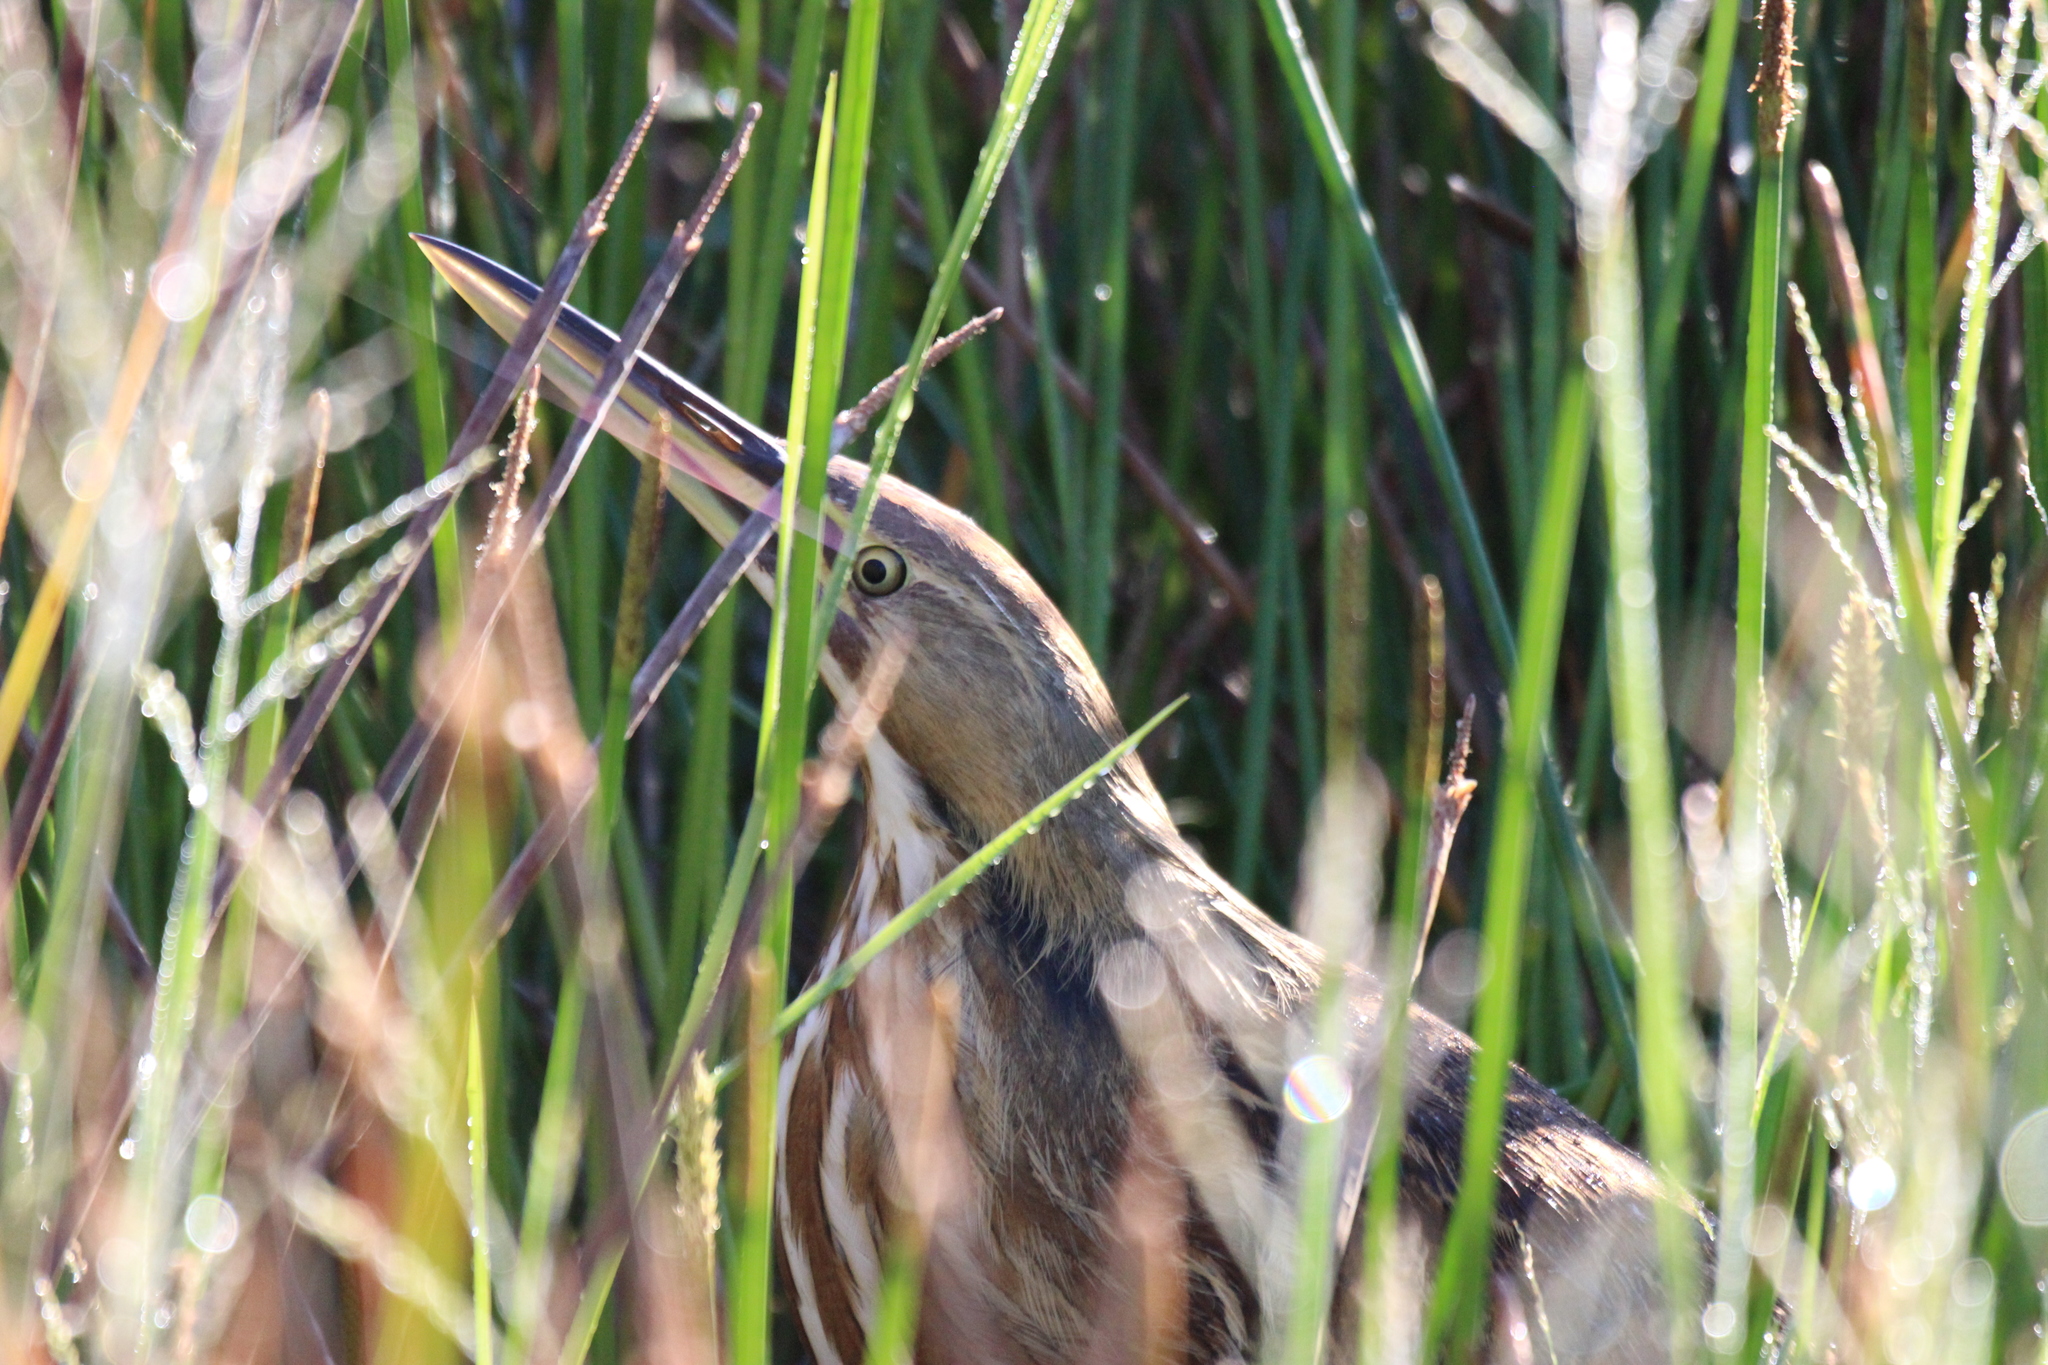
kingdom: Animalia
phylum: Chordata
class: Aves
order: Pelecaniformes
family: Ardeidae
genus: Botaurus
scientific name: Botaurus lentiginosus
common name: American bittern
